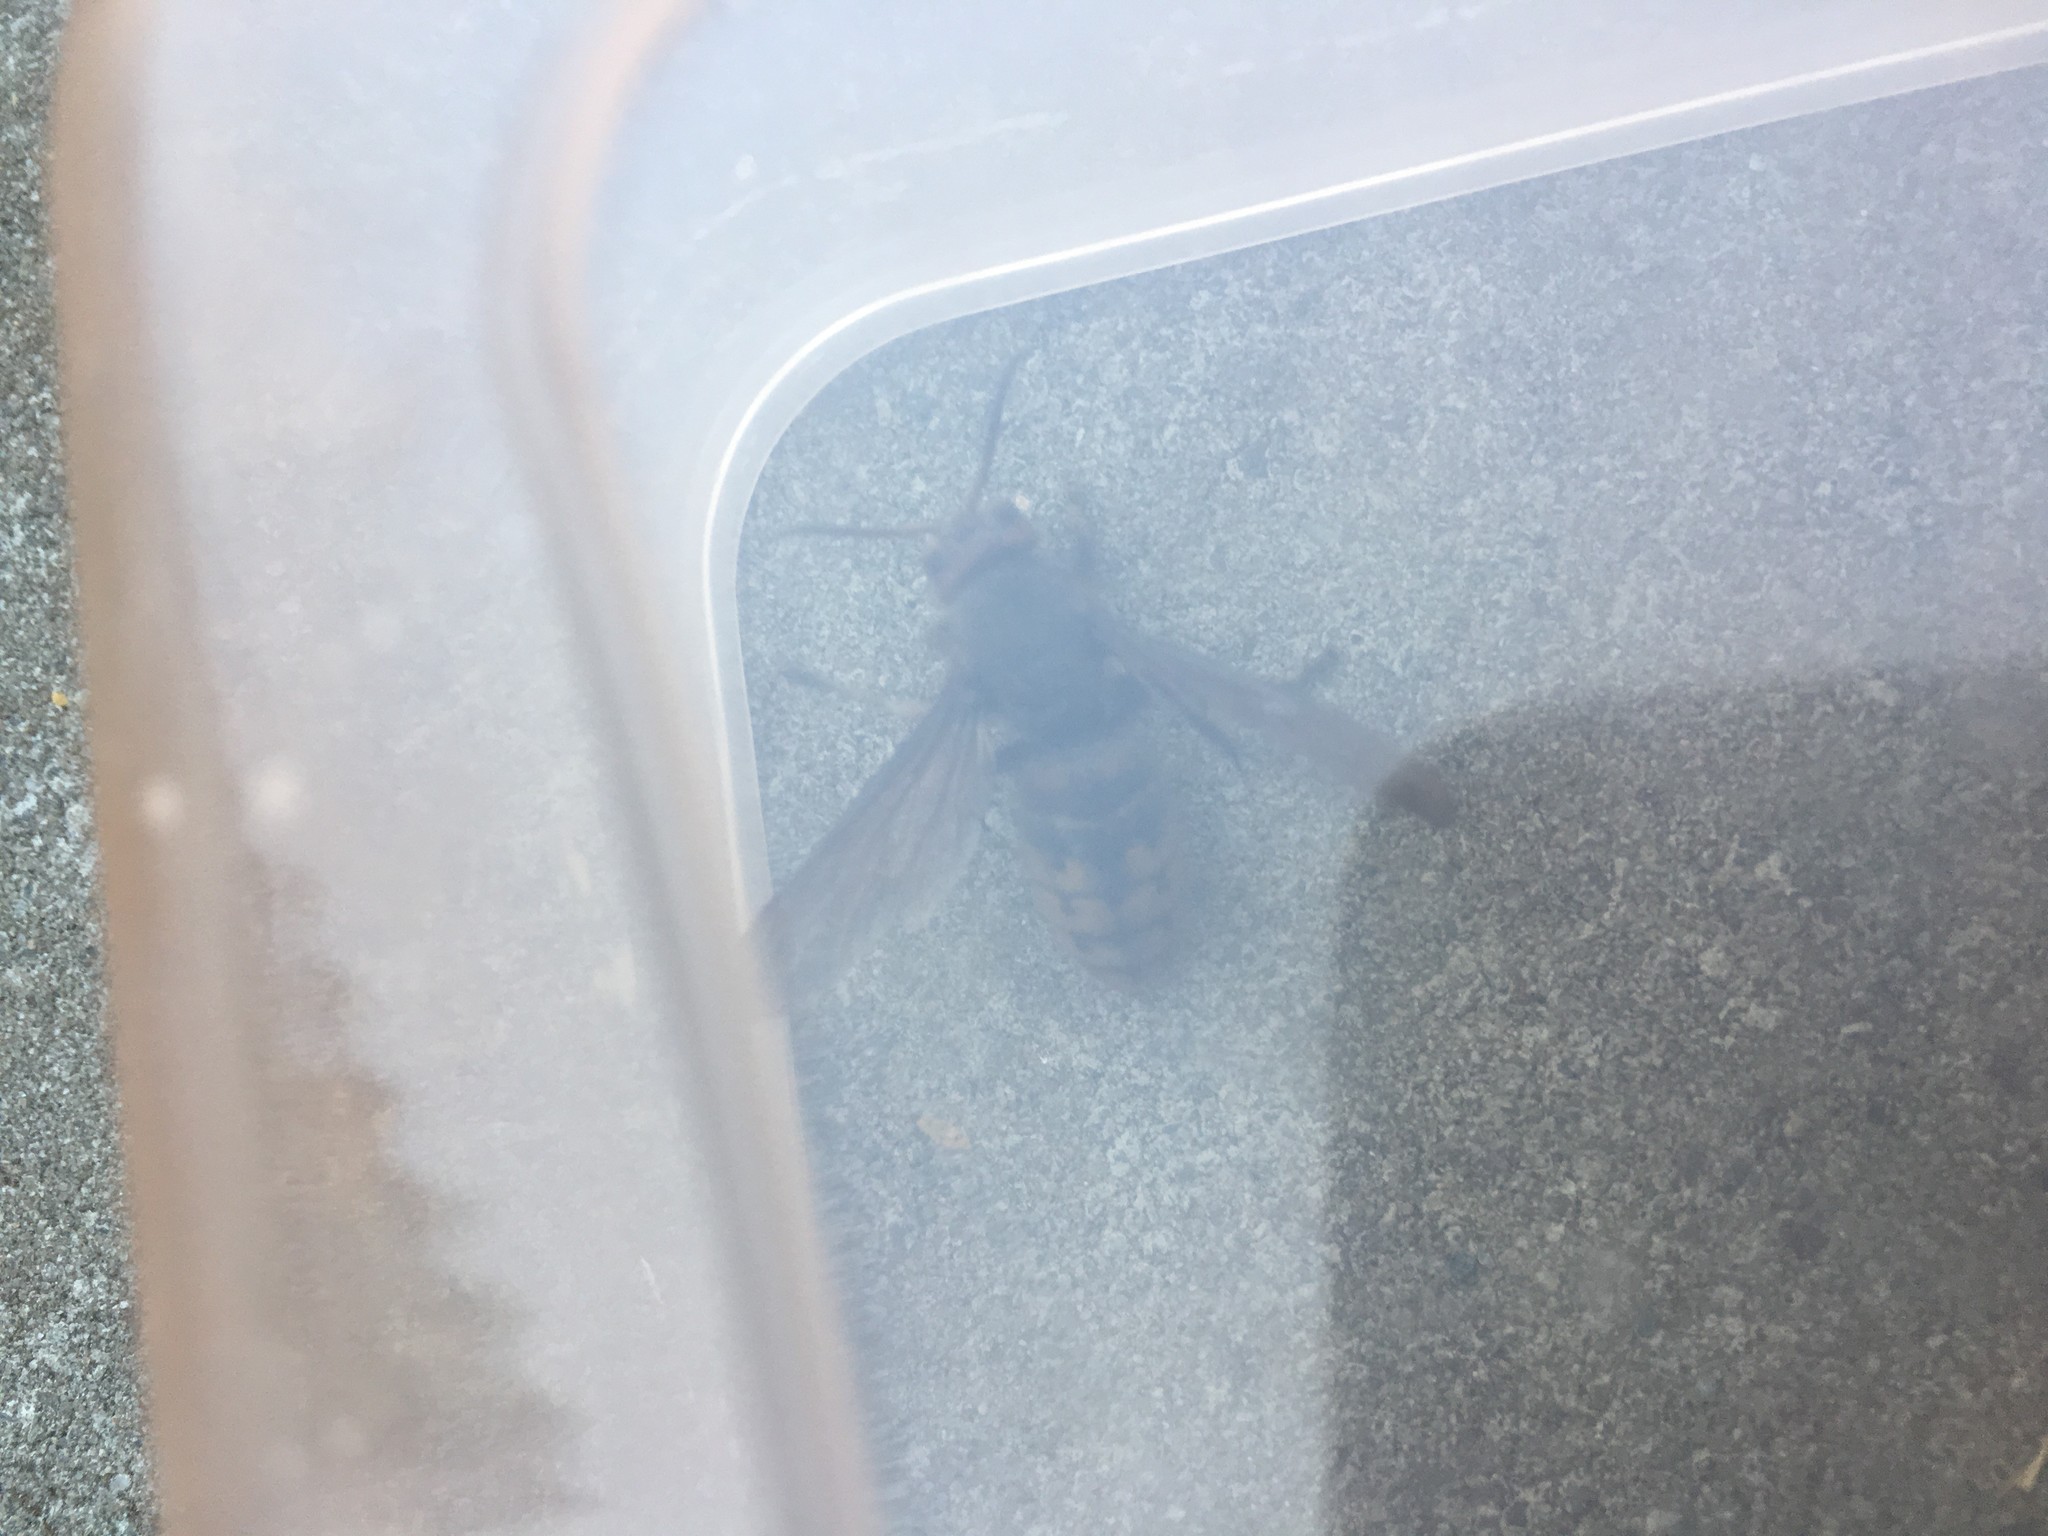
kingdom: Animalia
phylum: Arthropoda
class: Insecta
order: Hymenoptera
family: Vespidae
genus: Vespa
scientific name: Vespa crabro
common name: Hornet
